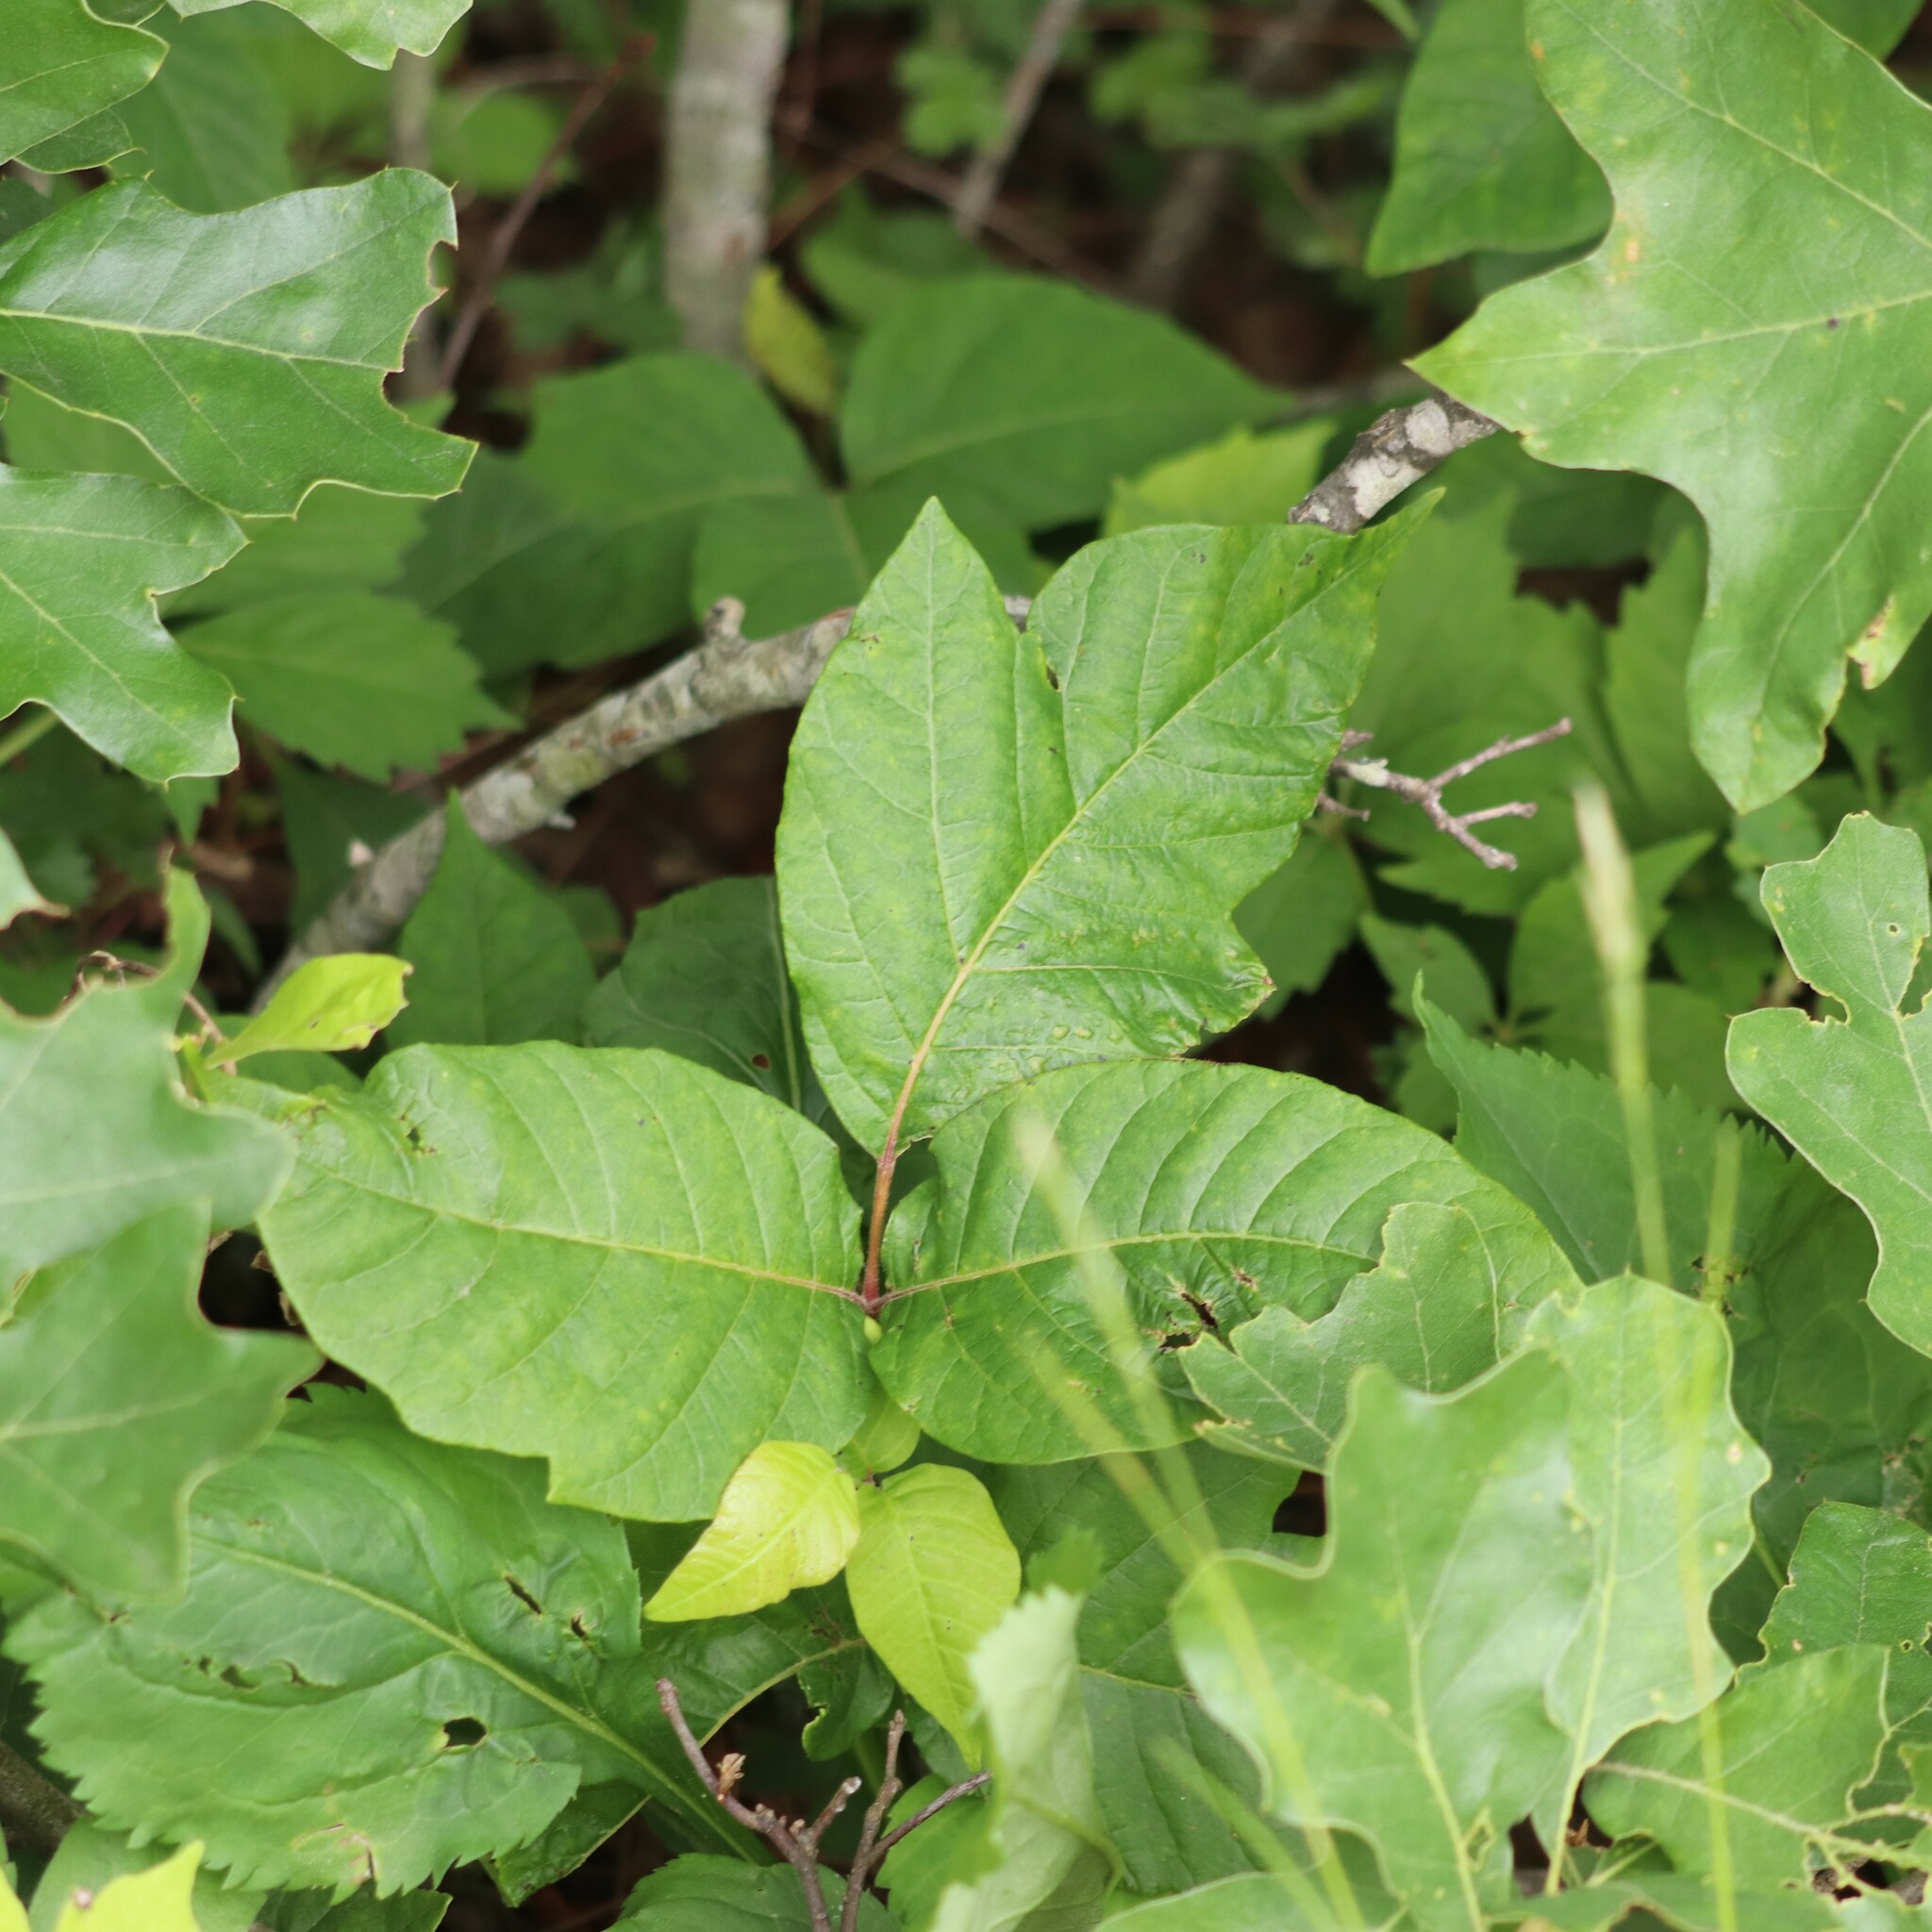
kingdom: Plantae
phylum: Tracheophyta
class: Magnoliopsida
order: Sapindales
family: Anacardiaceae
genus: Toxicodendron
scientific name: Toxicodendron radicans
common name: Poison ivy
